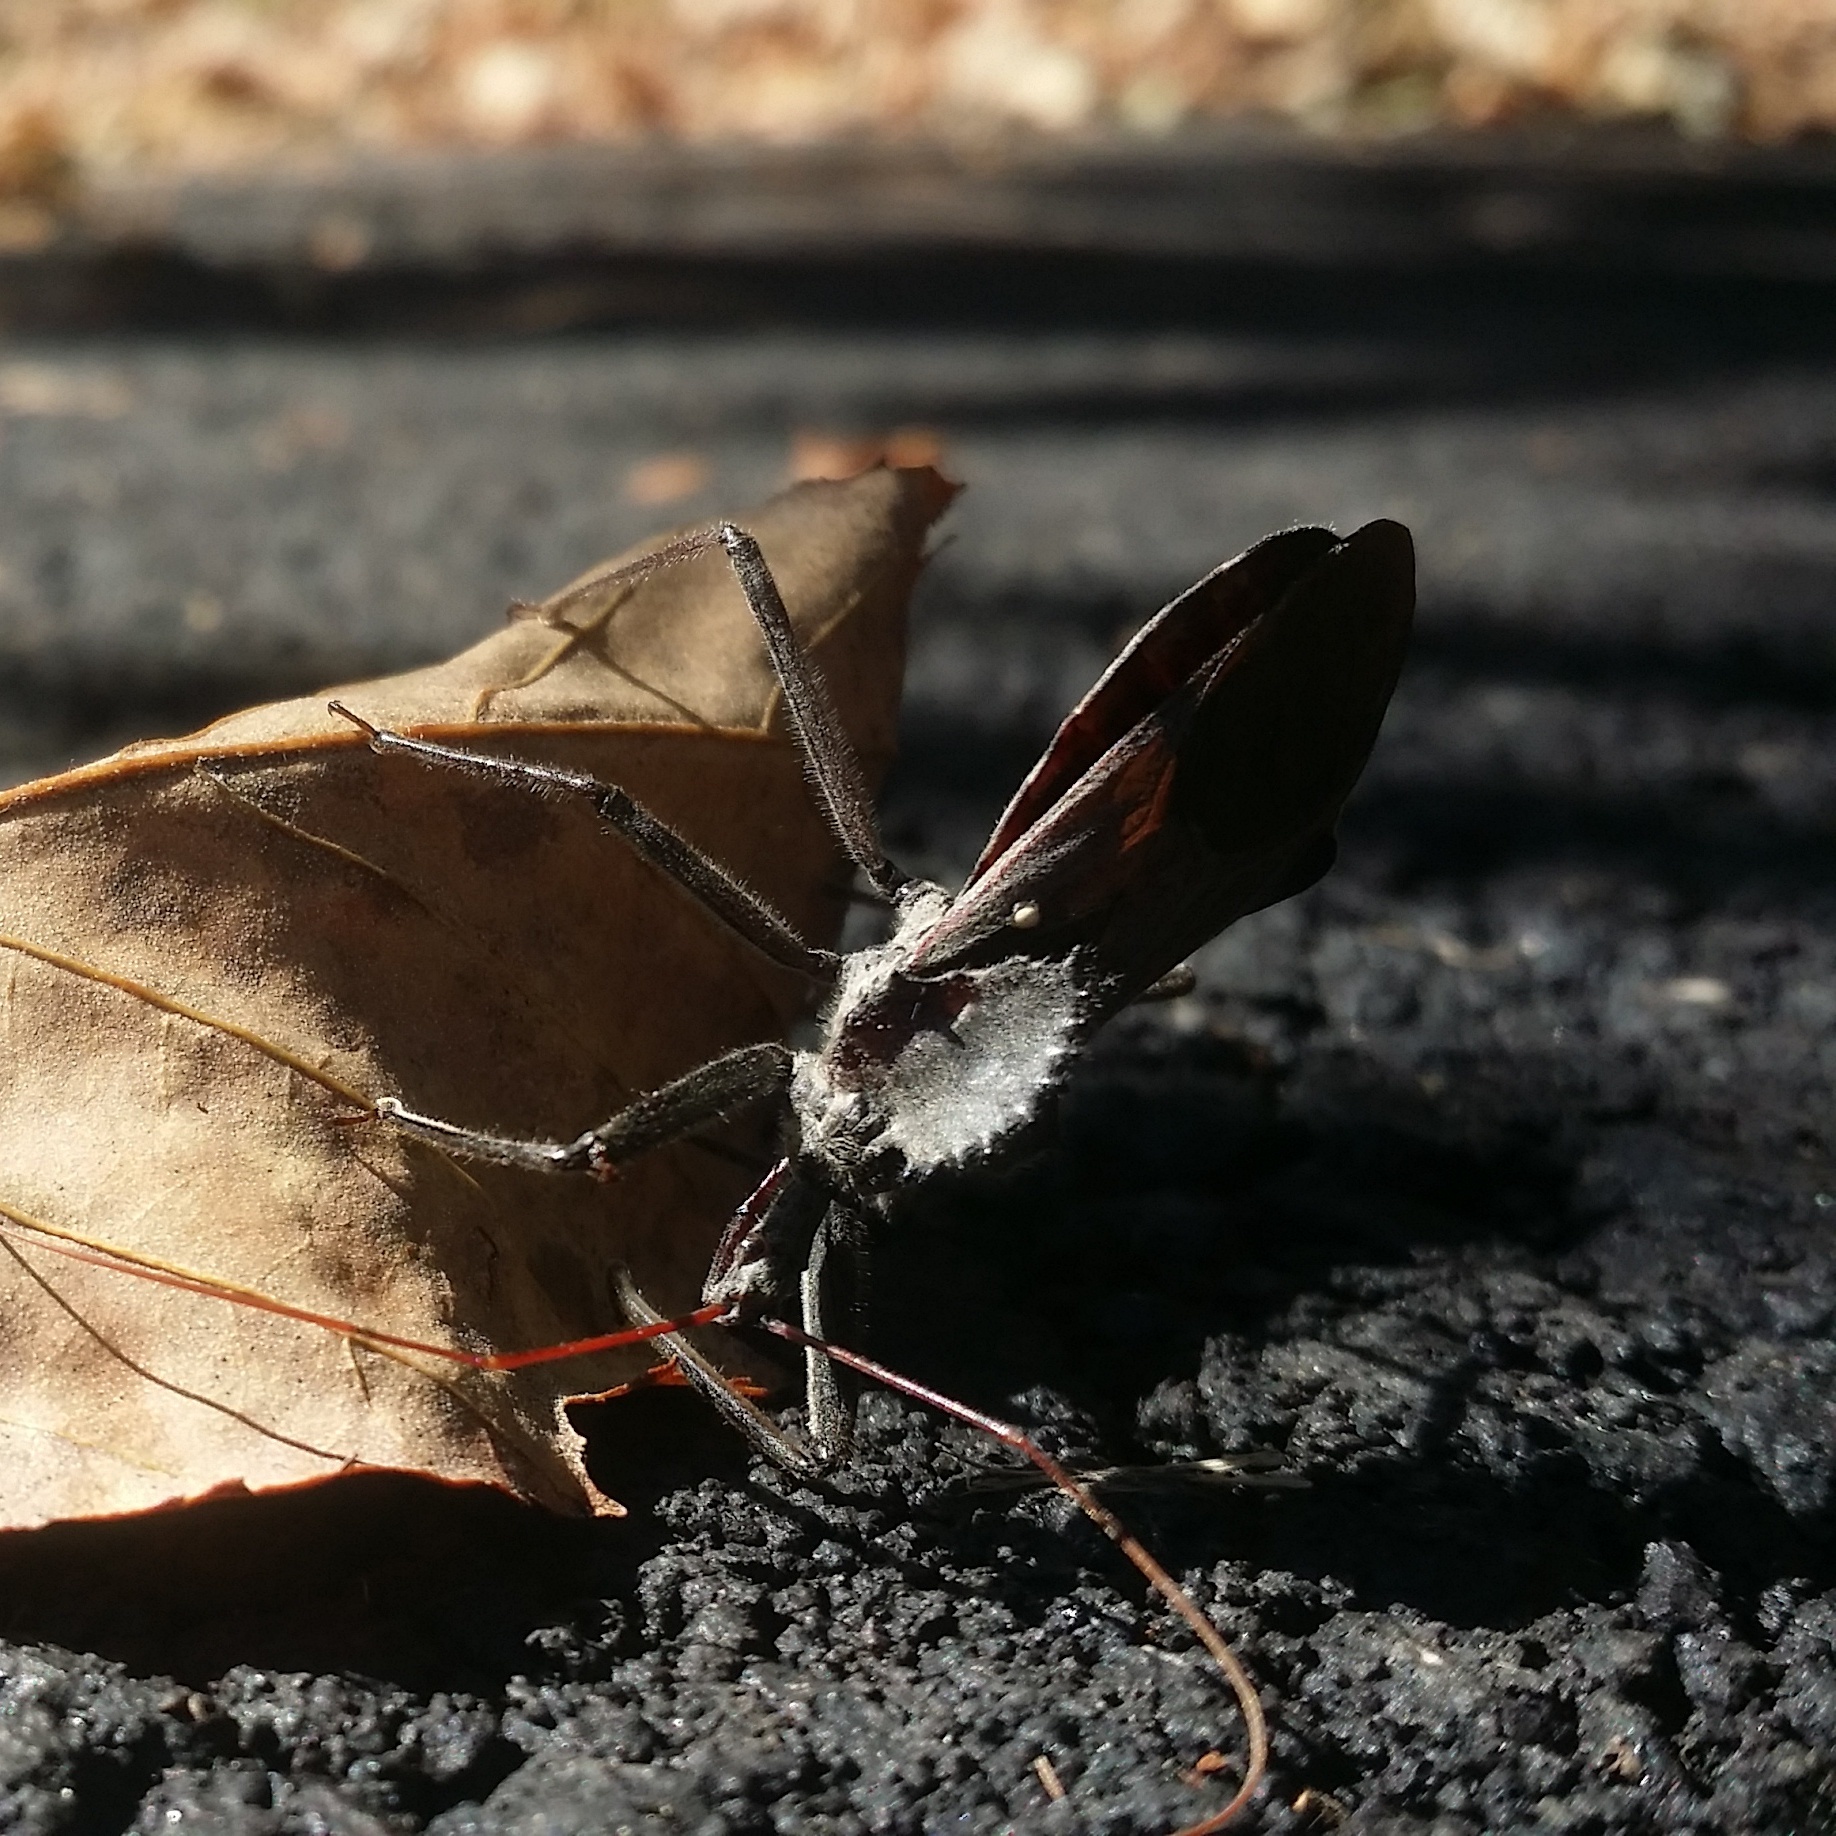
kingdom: Animalia
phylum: Arthropoda
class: Insecta
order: Hemiptera
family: Reduviidae
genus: Arilus
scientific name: Arilus cristatus
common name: North american wheel bug
